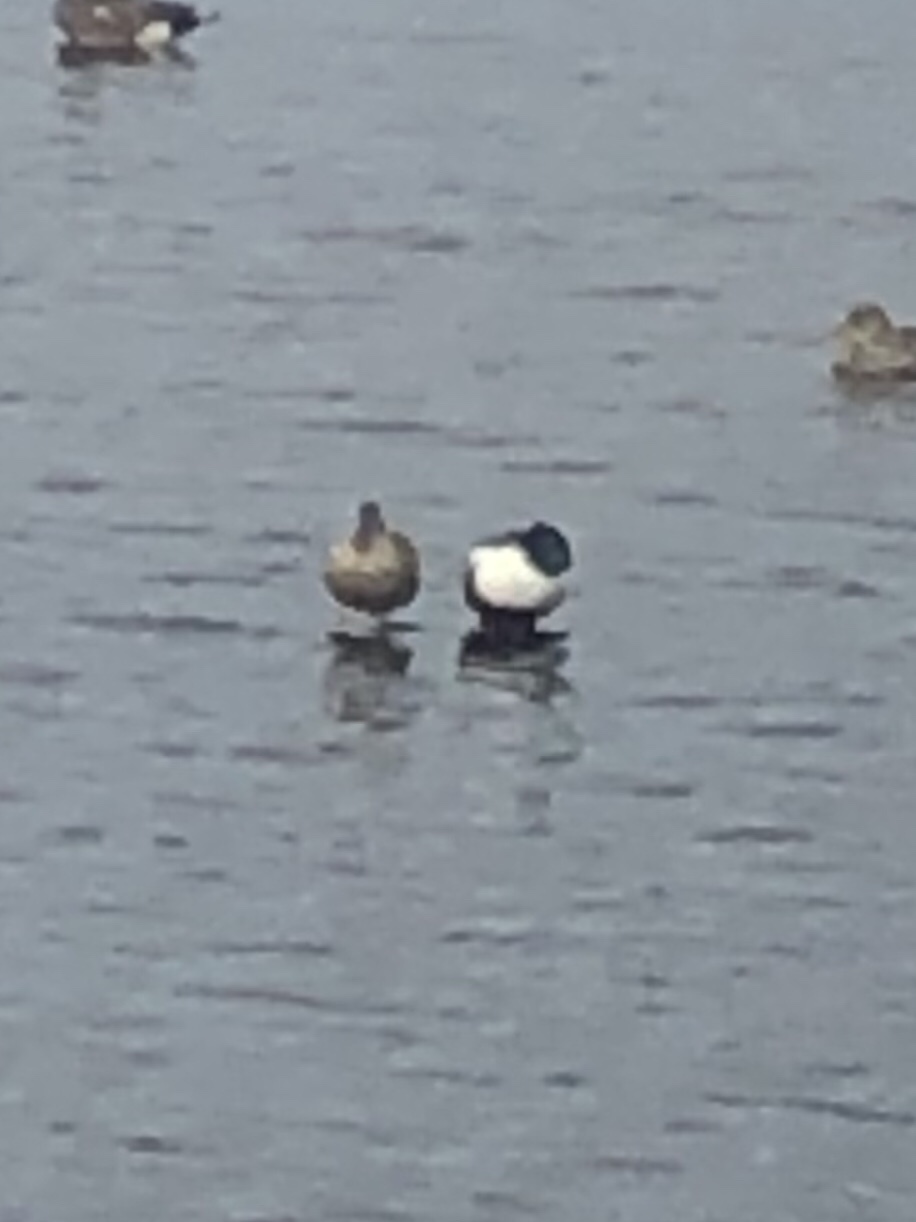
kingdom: Animalia
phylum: Chordata
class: Aves
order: Anseriformes
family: Anatidae
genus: Spatula
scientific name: Spatula clypeata
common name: Northern shoveler
